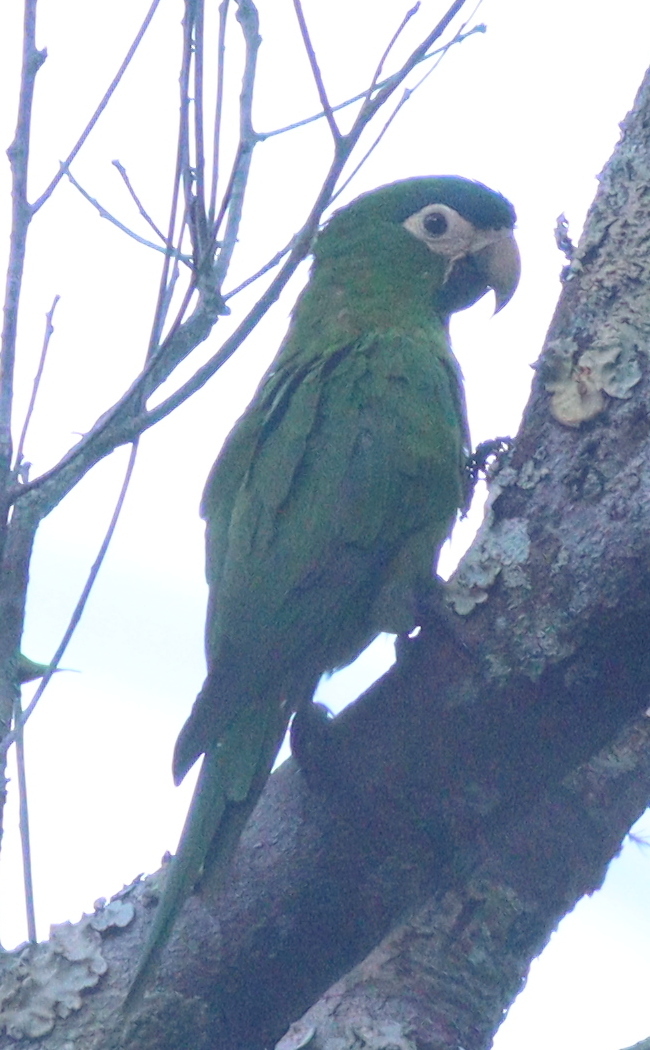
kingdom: Animalia
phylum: Chordata
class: Aves
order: Psittaciformes
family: Psittacidae
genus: Diopsittaca
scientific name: Diopsittaca nobilis
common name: Red-shouldered macaw
